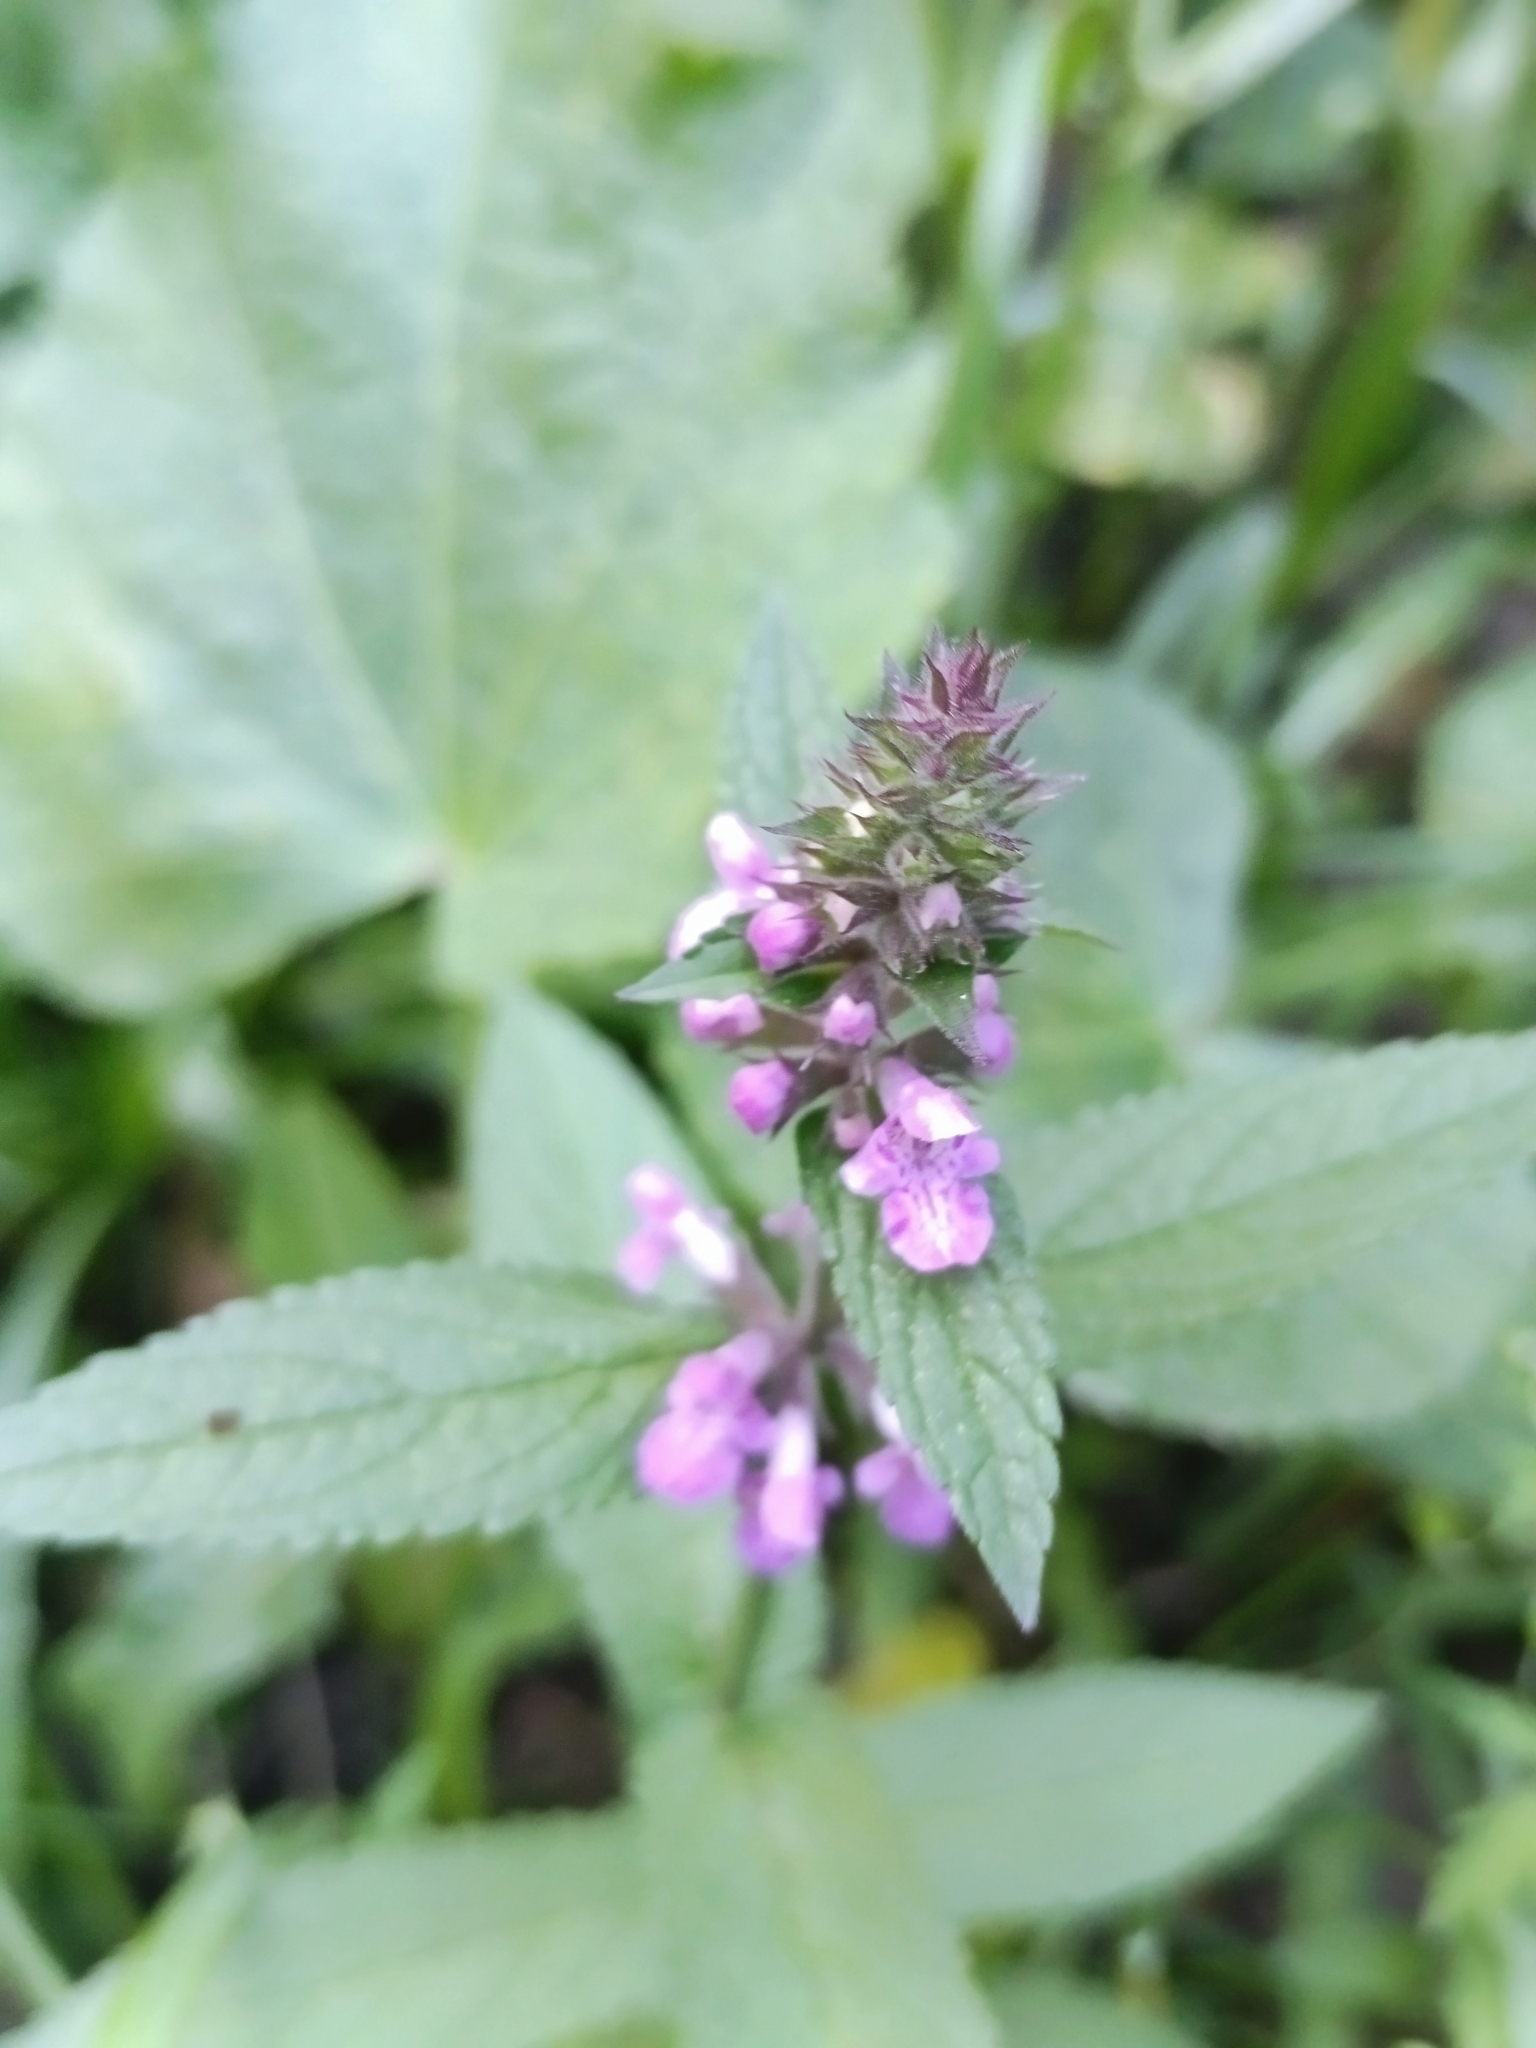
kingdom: Plantae
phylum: Tracheophyta
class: Magnoliopsida
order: Lamiales
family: Lamiaceae
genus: Stachys
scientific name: Stachys palustris
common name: Marsh woundwort
